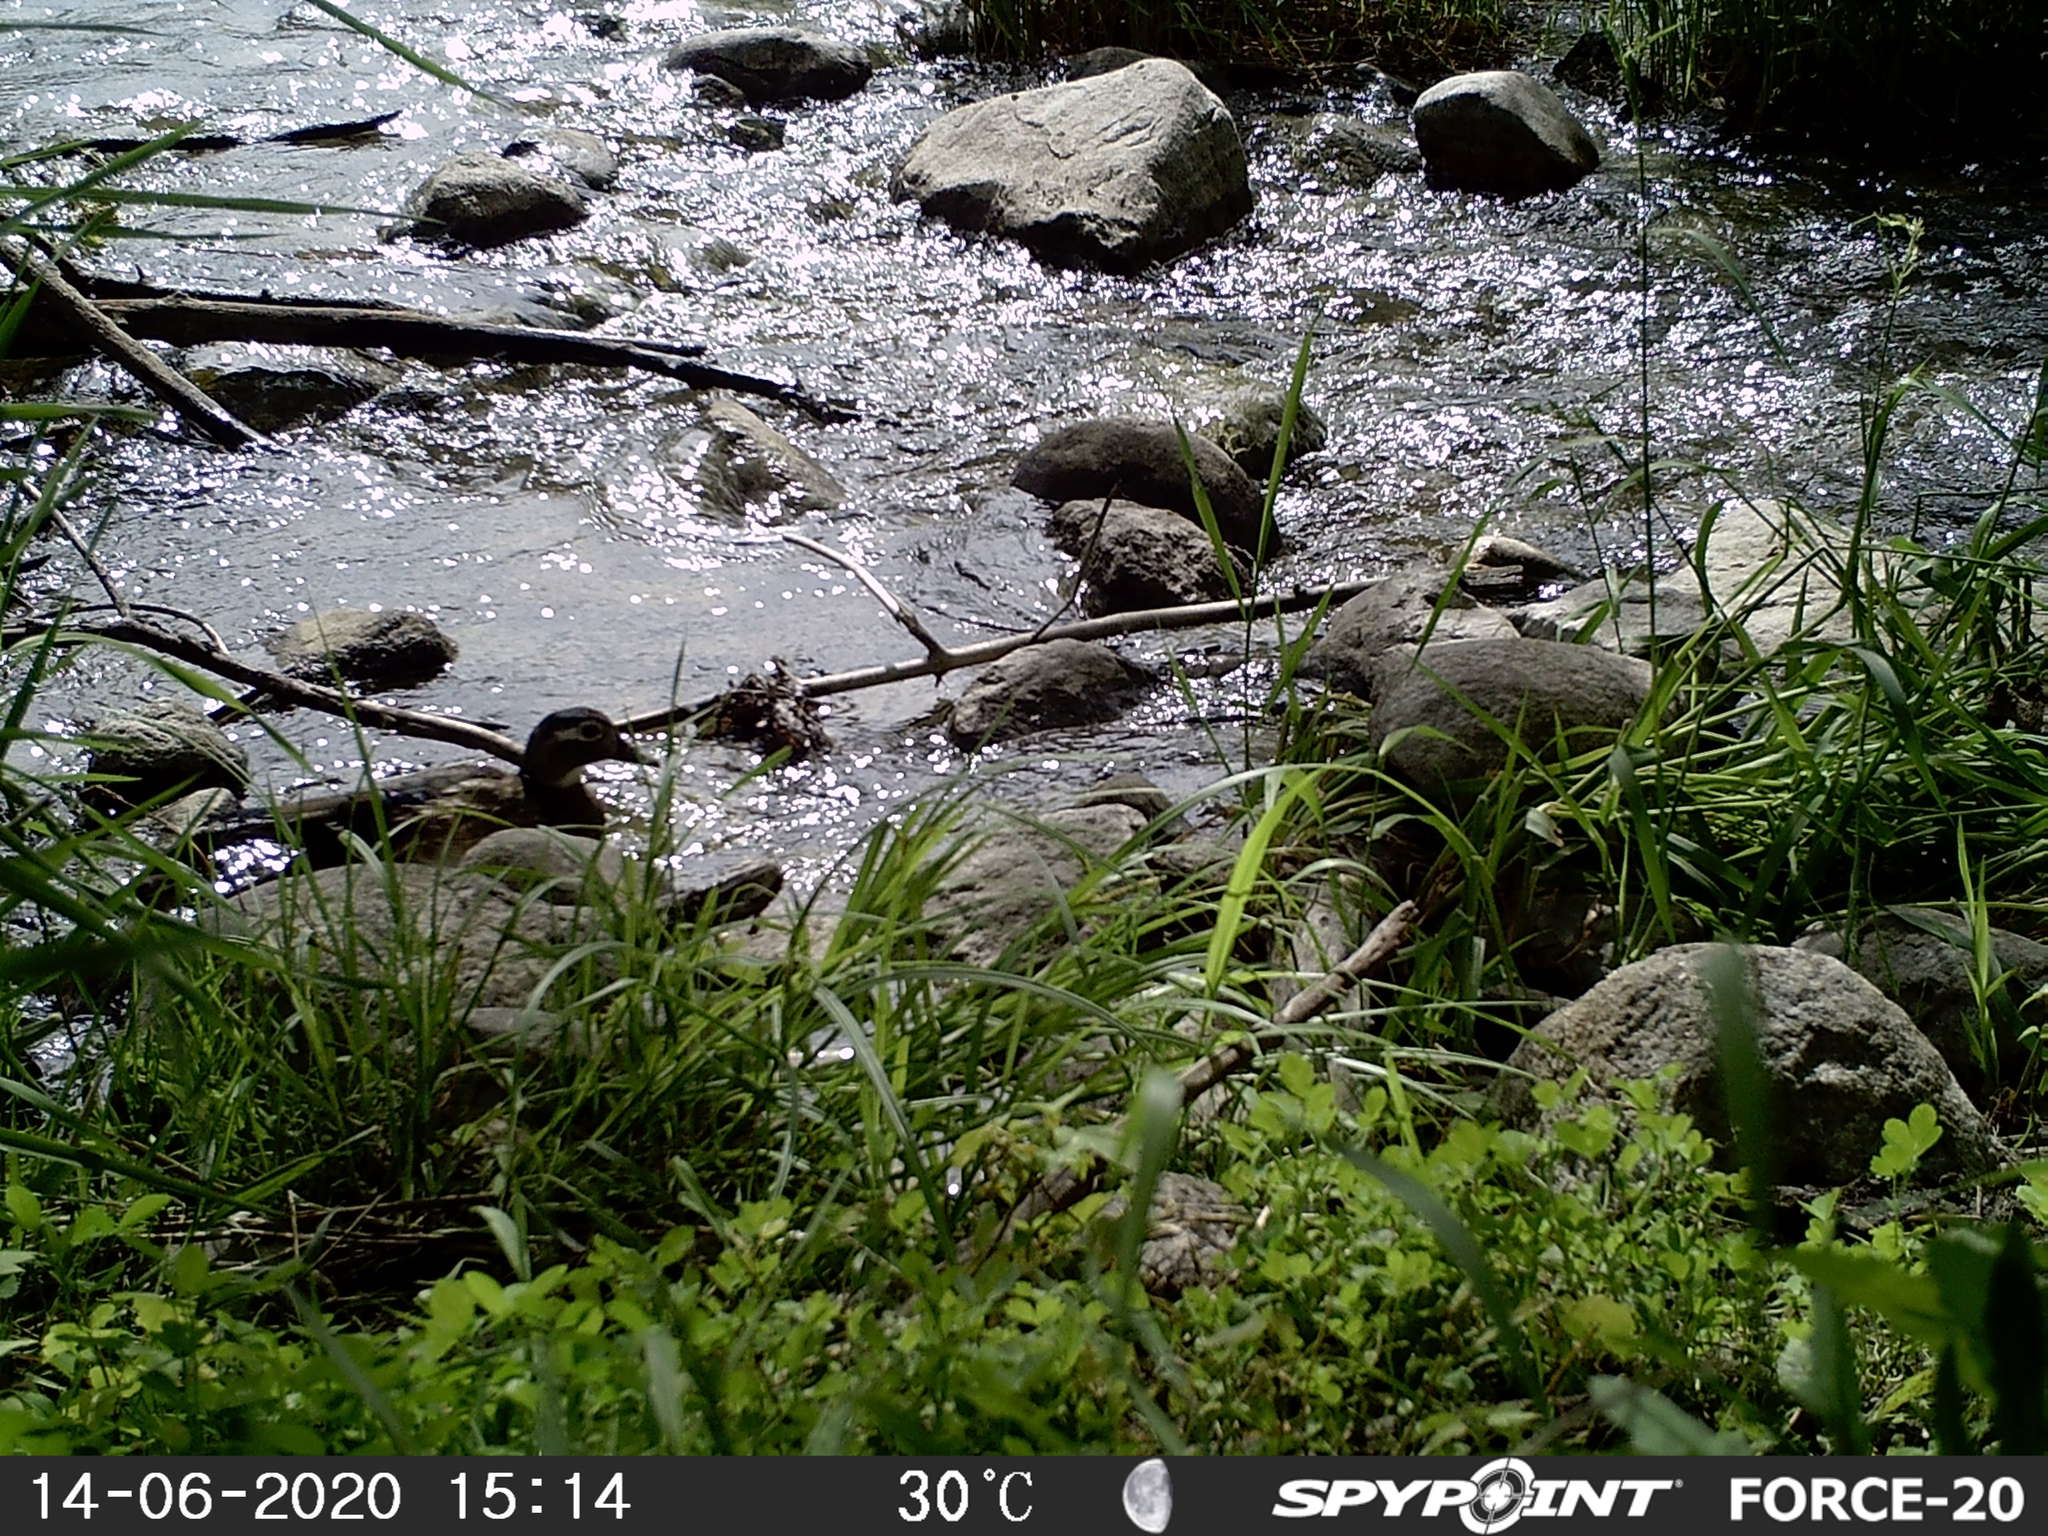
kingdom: Animalia
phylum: Chordata
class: Aves
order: Anseriformes
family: Anatidae
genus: Aix
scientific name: Aix sponsa
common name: Wood duck
